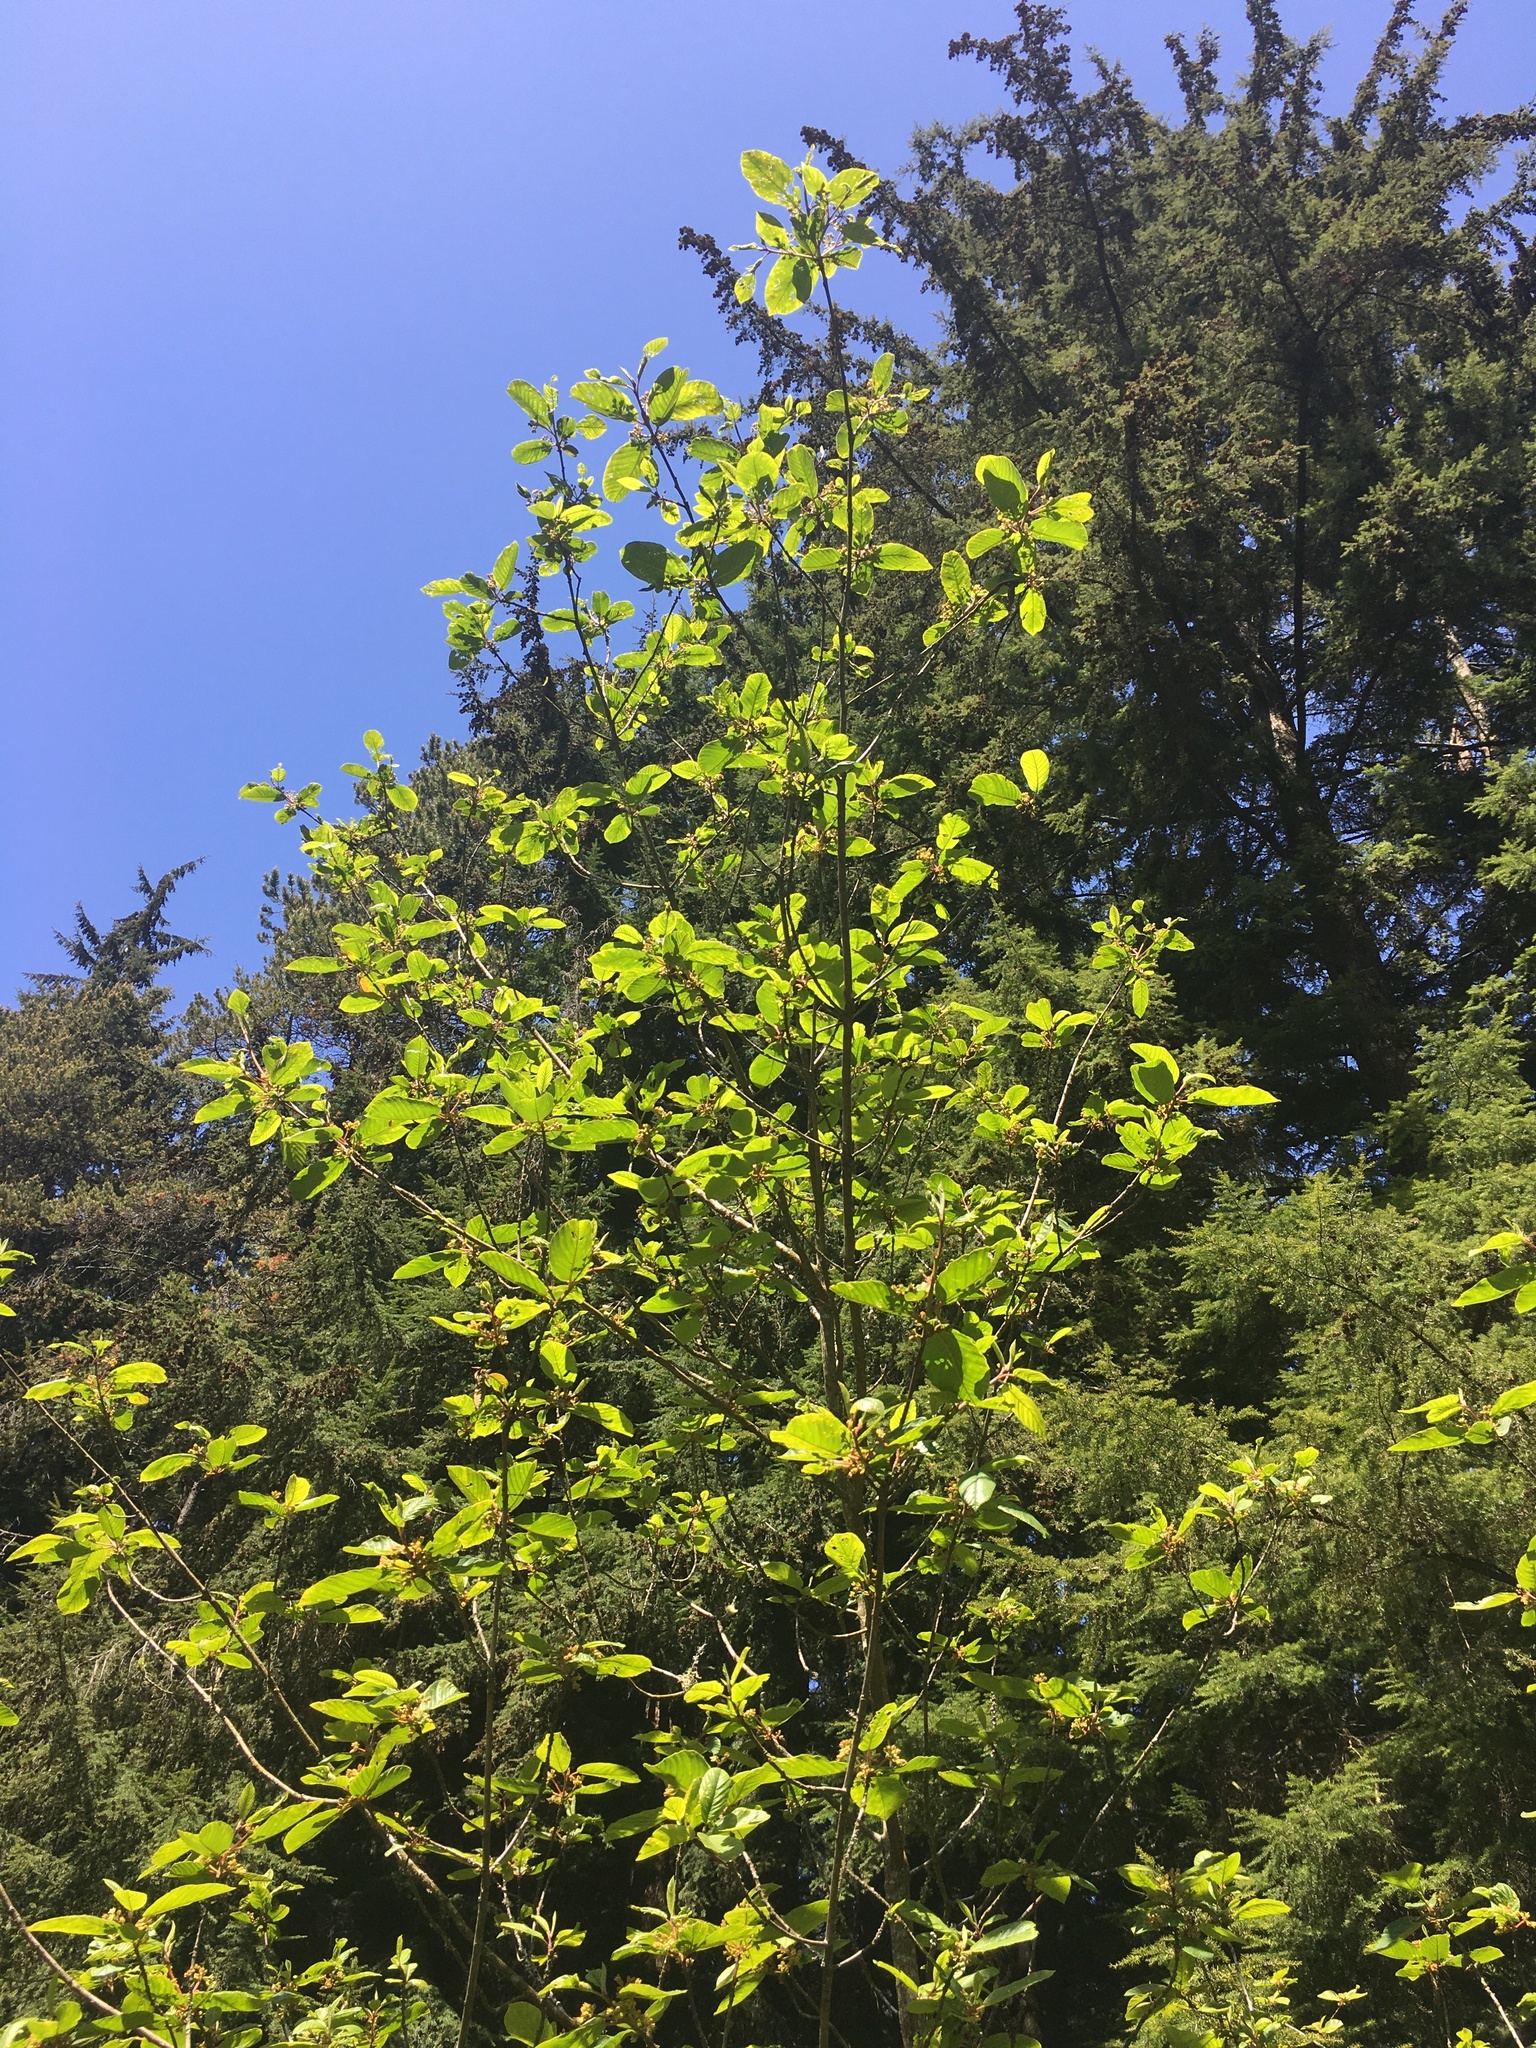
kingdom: Plantae
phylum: Tracheophyta
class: Magnoliopsida
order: Rosales
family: Rhamnaceae
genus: Frangula
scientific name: Frangula purshiana
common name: Cascara buckthorn
